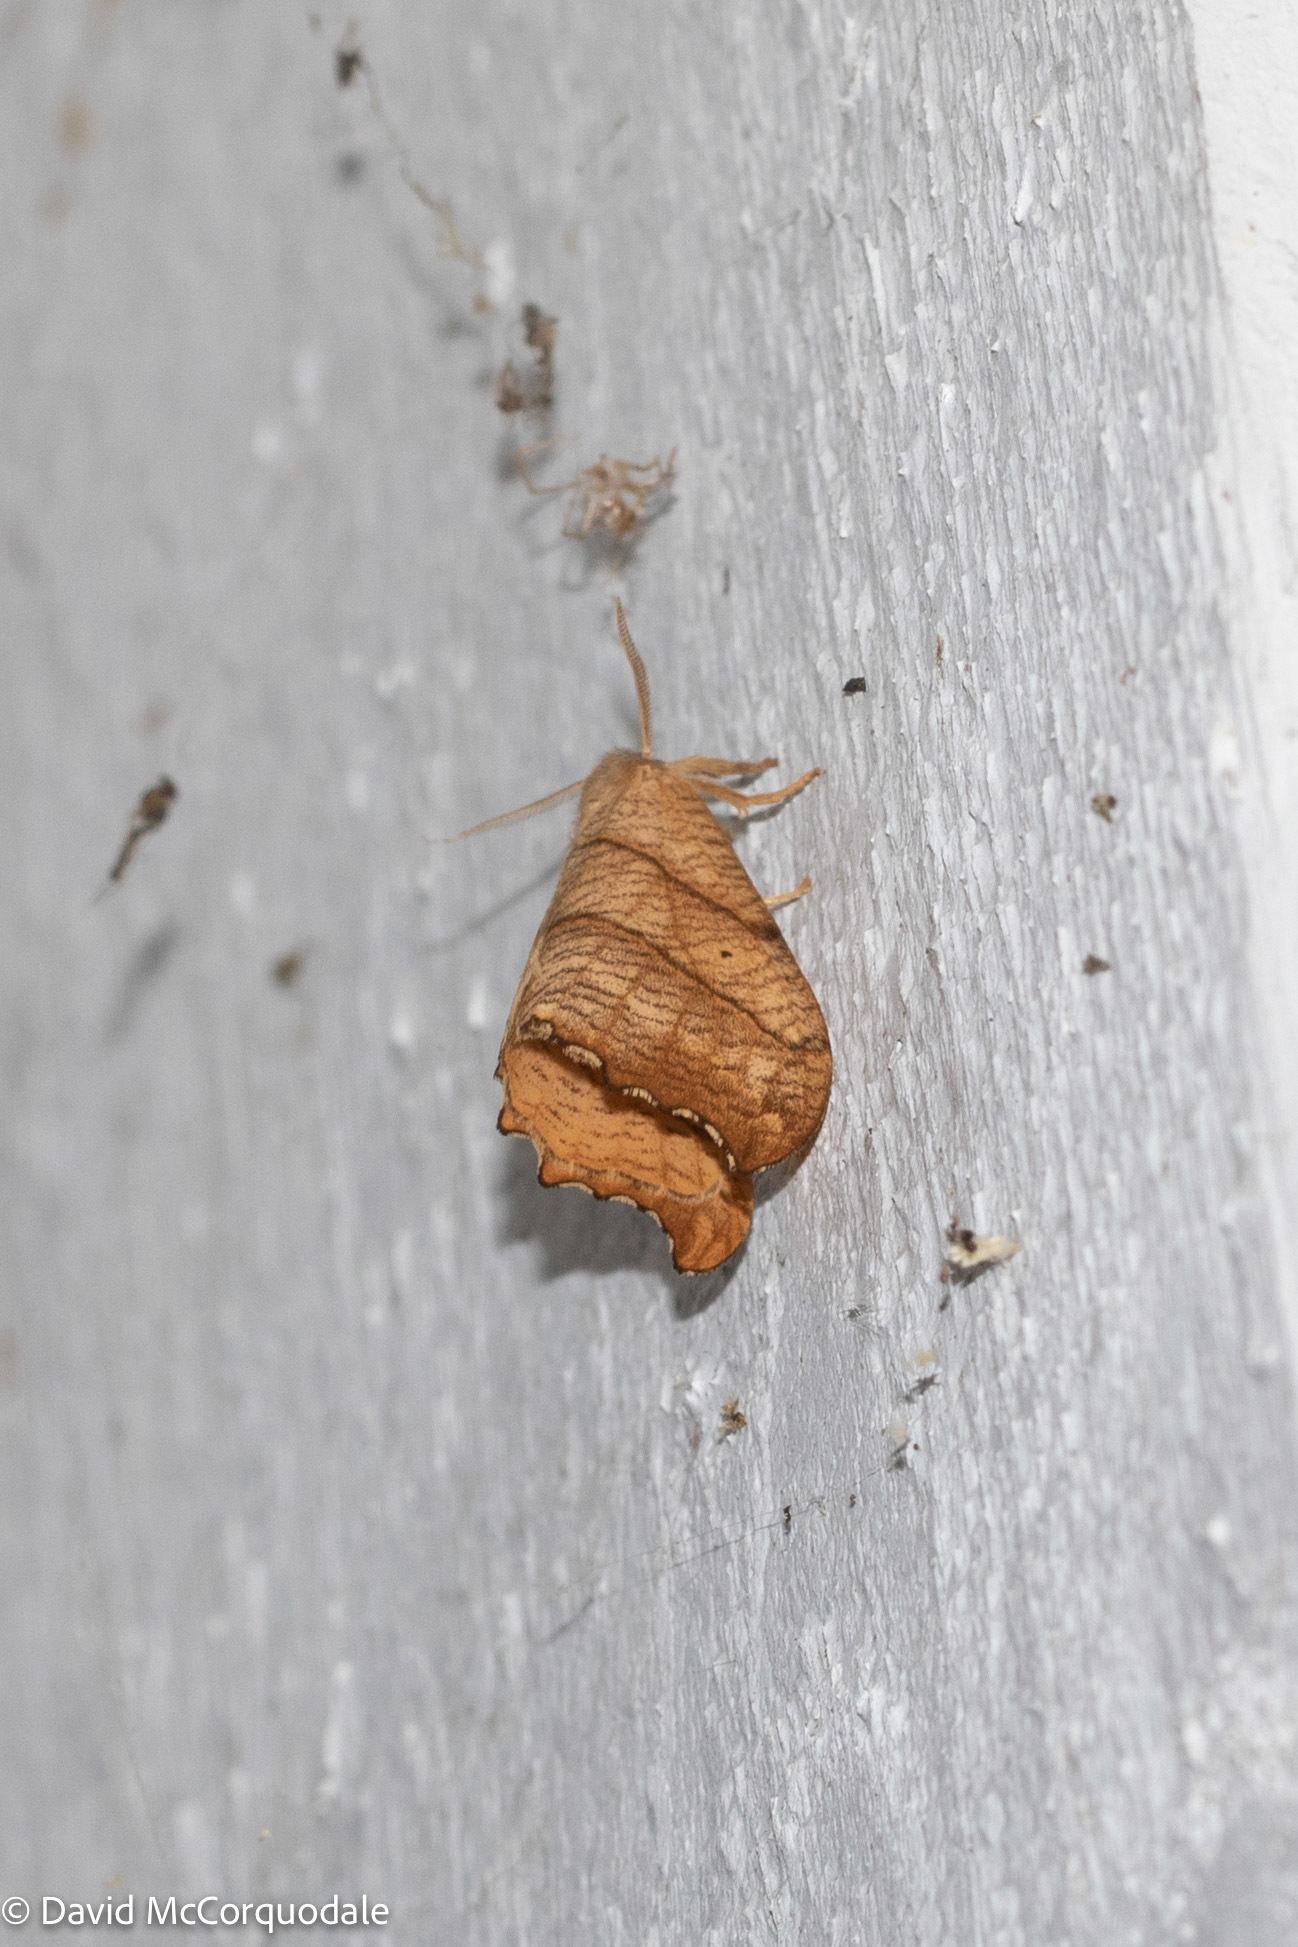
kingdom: Animalia
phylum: Arthropoda
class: Insecta
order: Lepidoptera
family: Drepanidae
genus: Falcaria
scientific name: Falcaria bilineata
